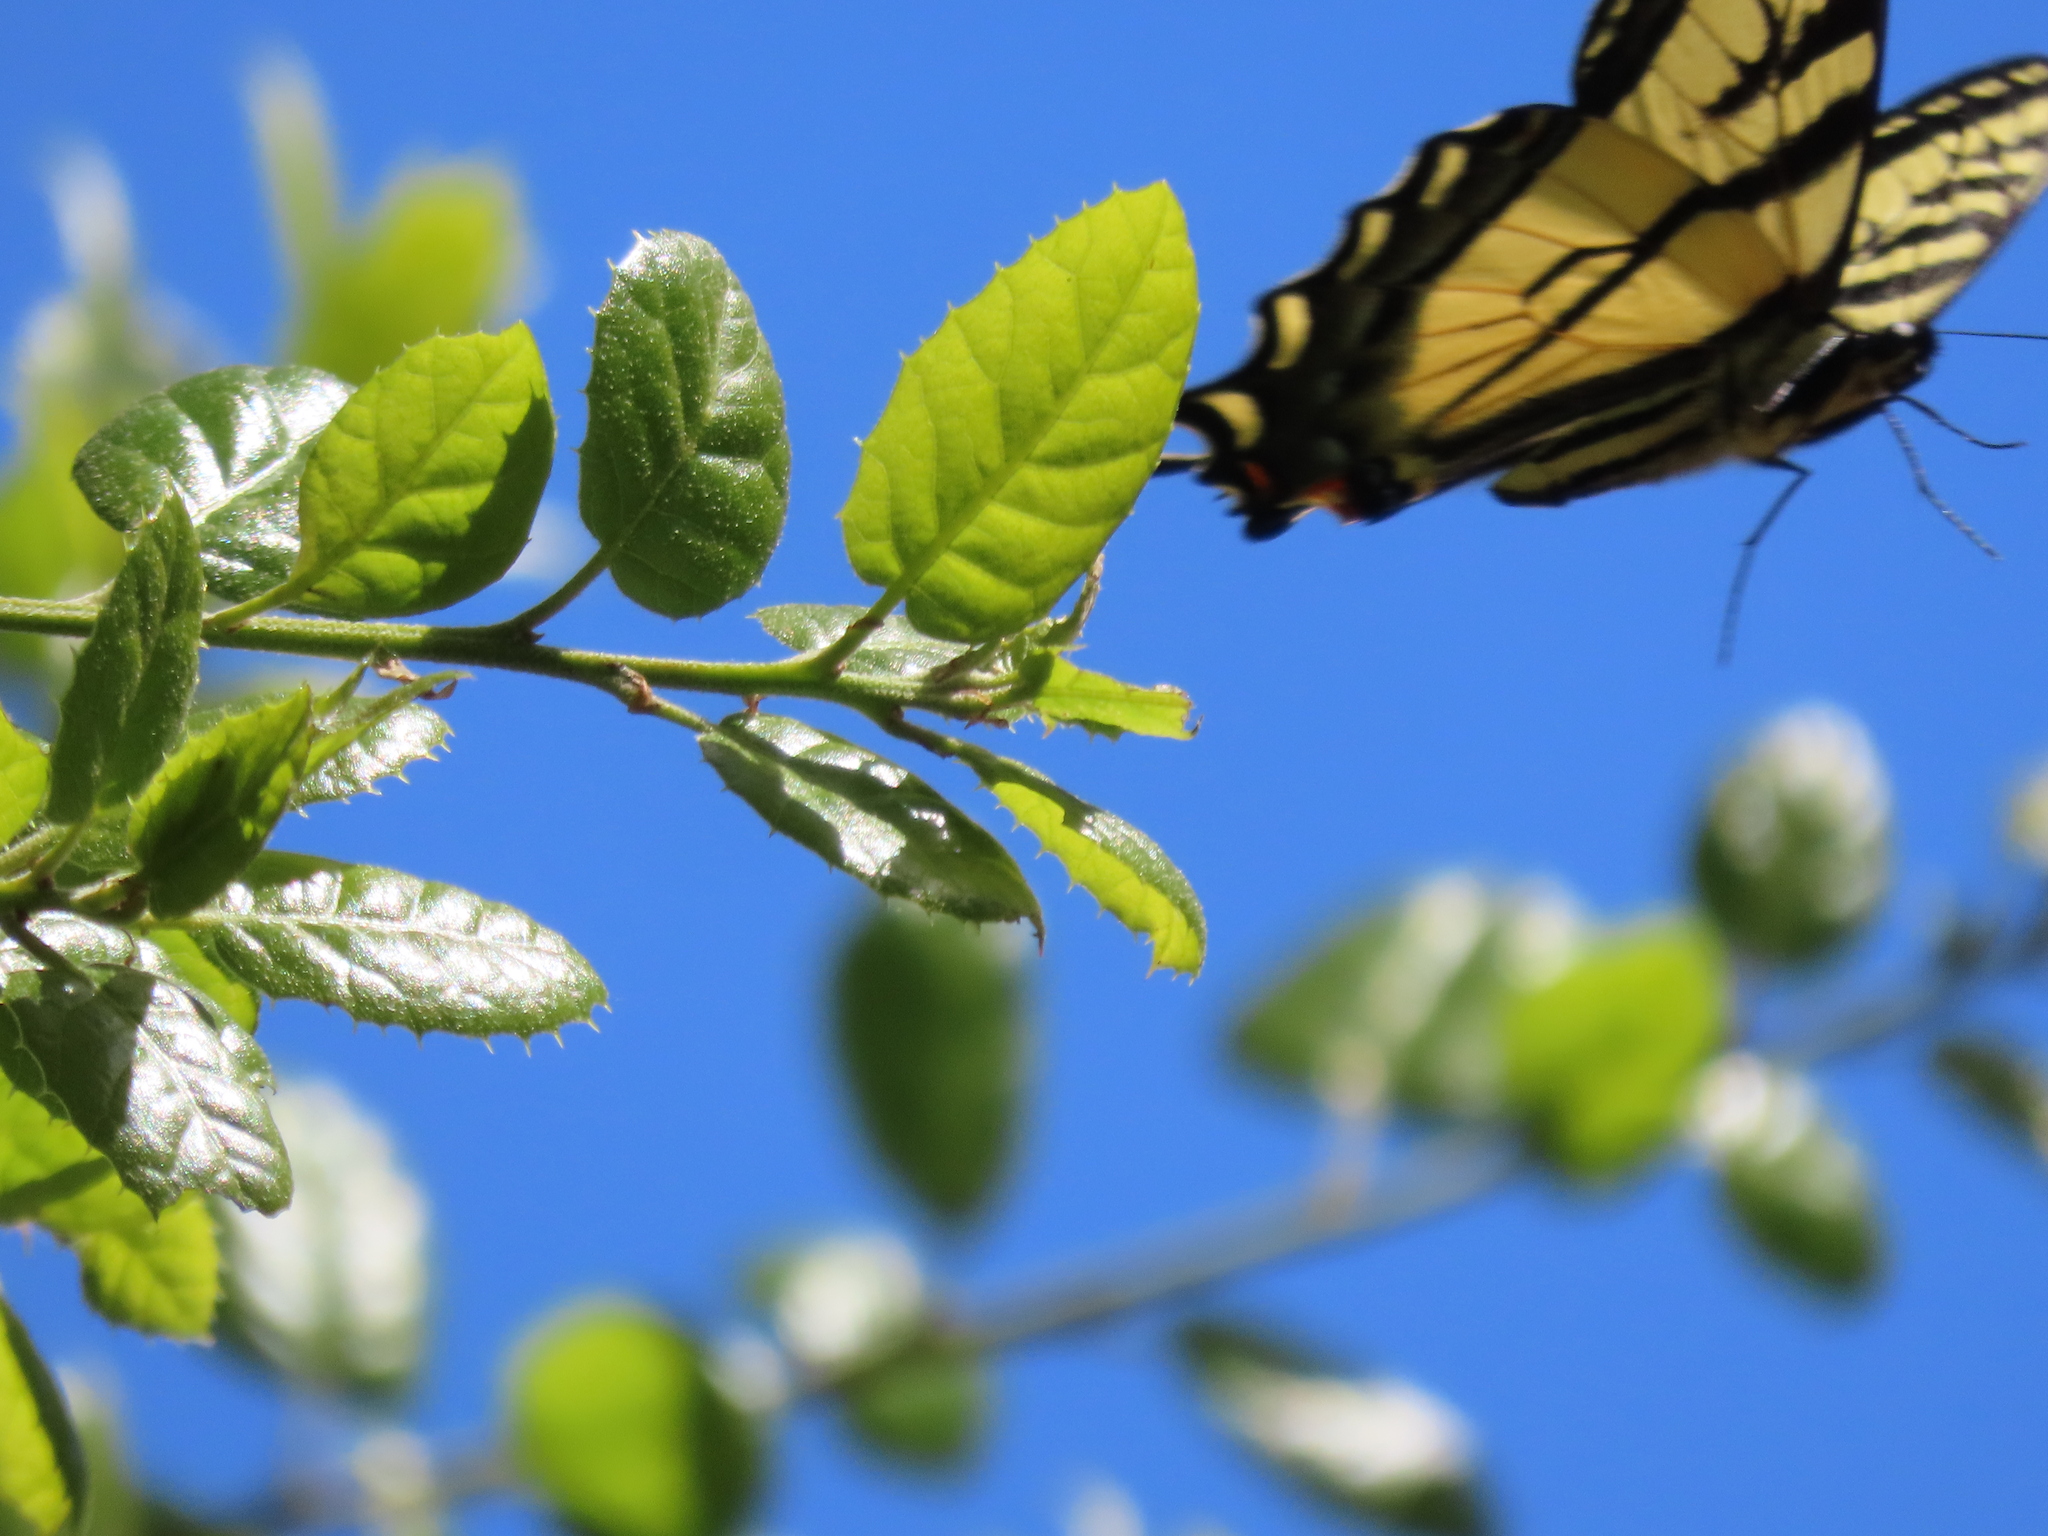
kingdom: Animalia
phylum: Arthropoda
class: Insecta
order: Lepidoptera
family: Papilionidae
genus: Papilio
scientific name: Papilio rutulus
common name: Western tiger swallowtail
